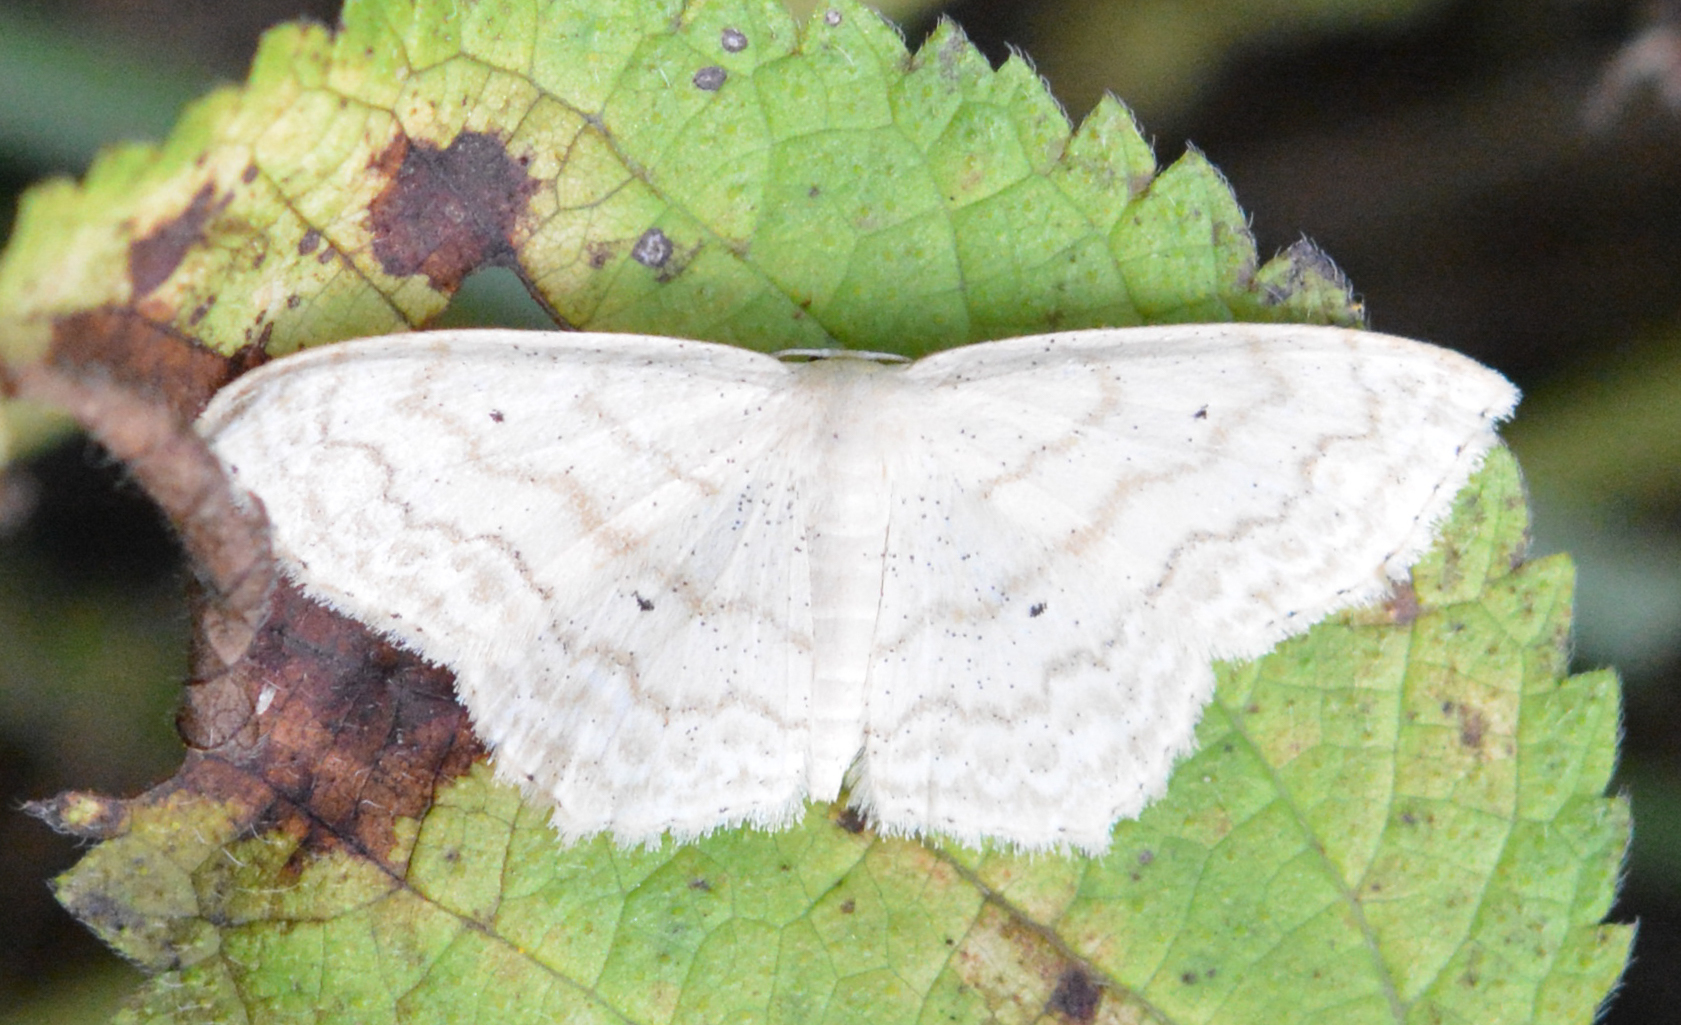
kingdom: Animalia
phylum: Arthropoda
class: Insecta
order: Lepidoptera
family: Geometridae
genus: Scopula
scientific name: Scopula limboundata
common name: Large lace border
